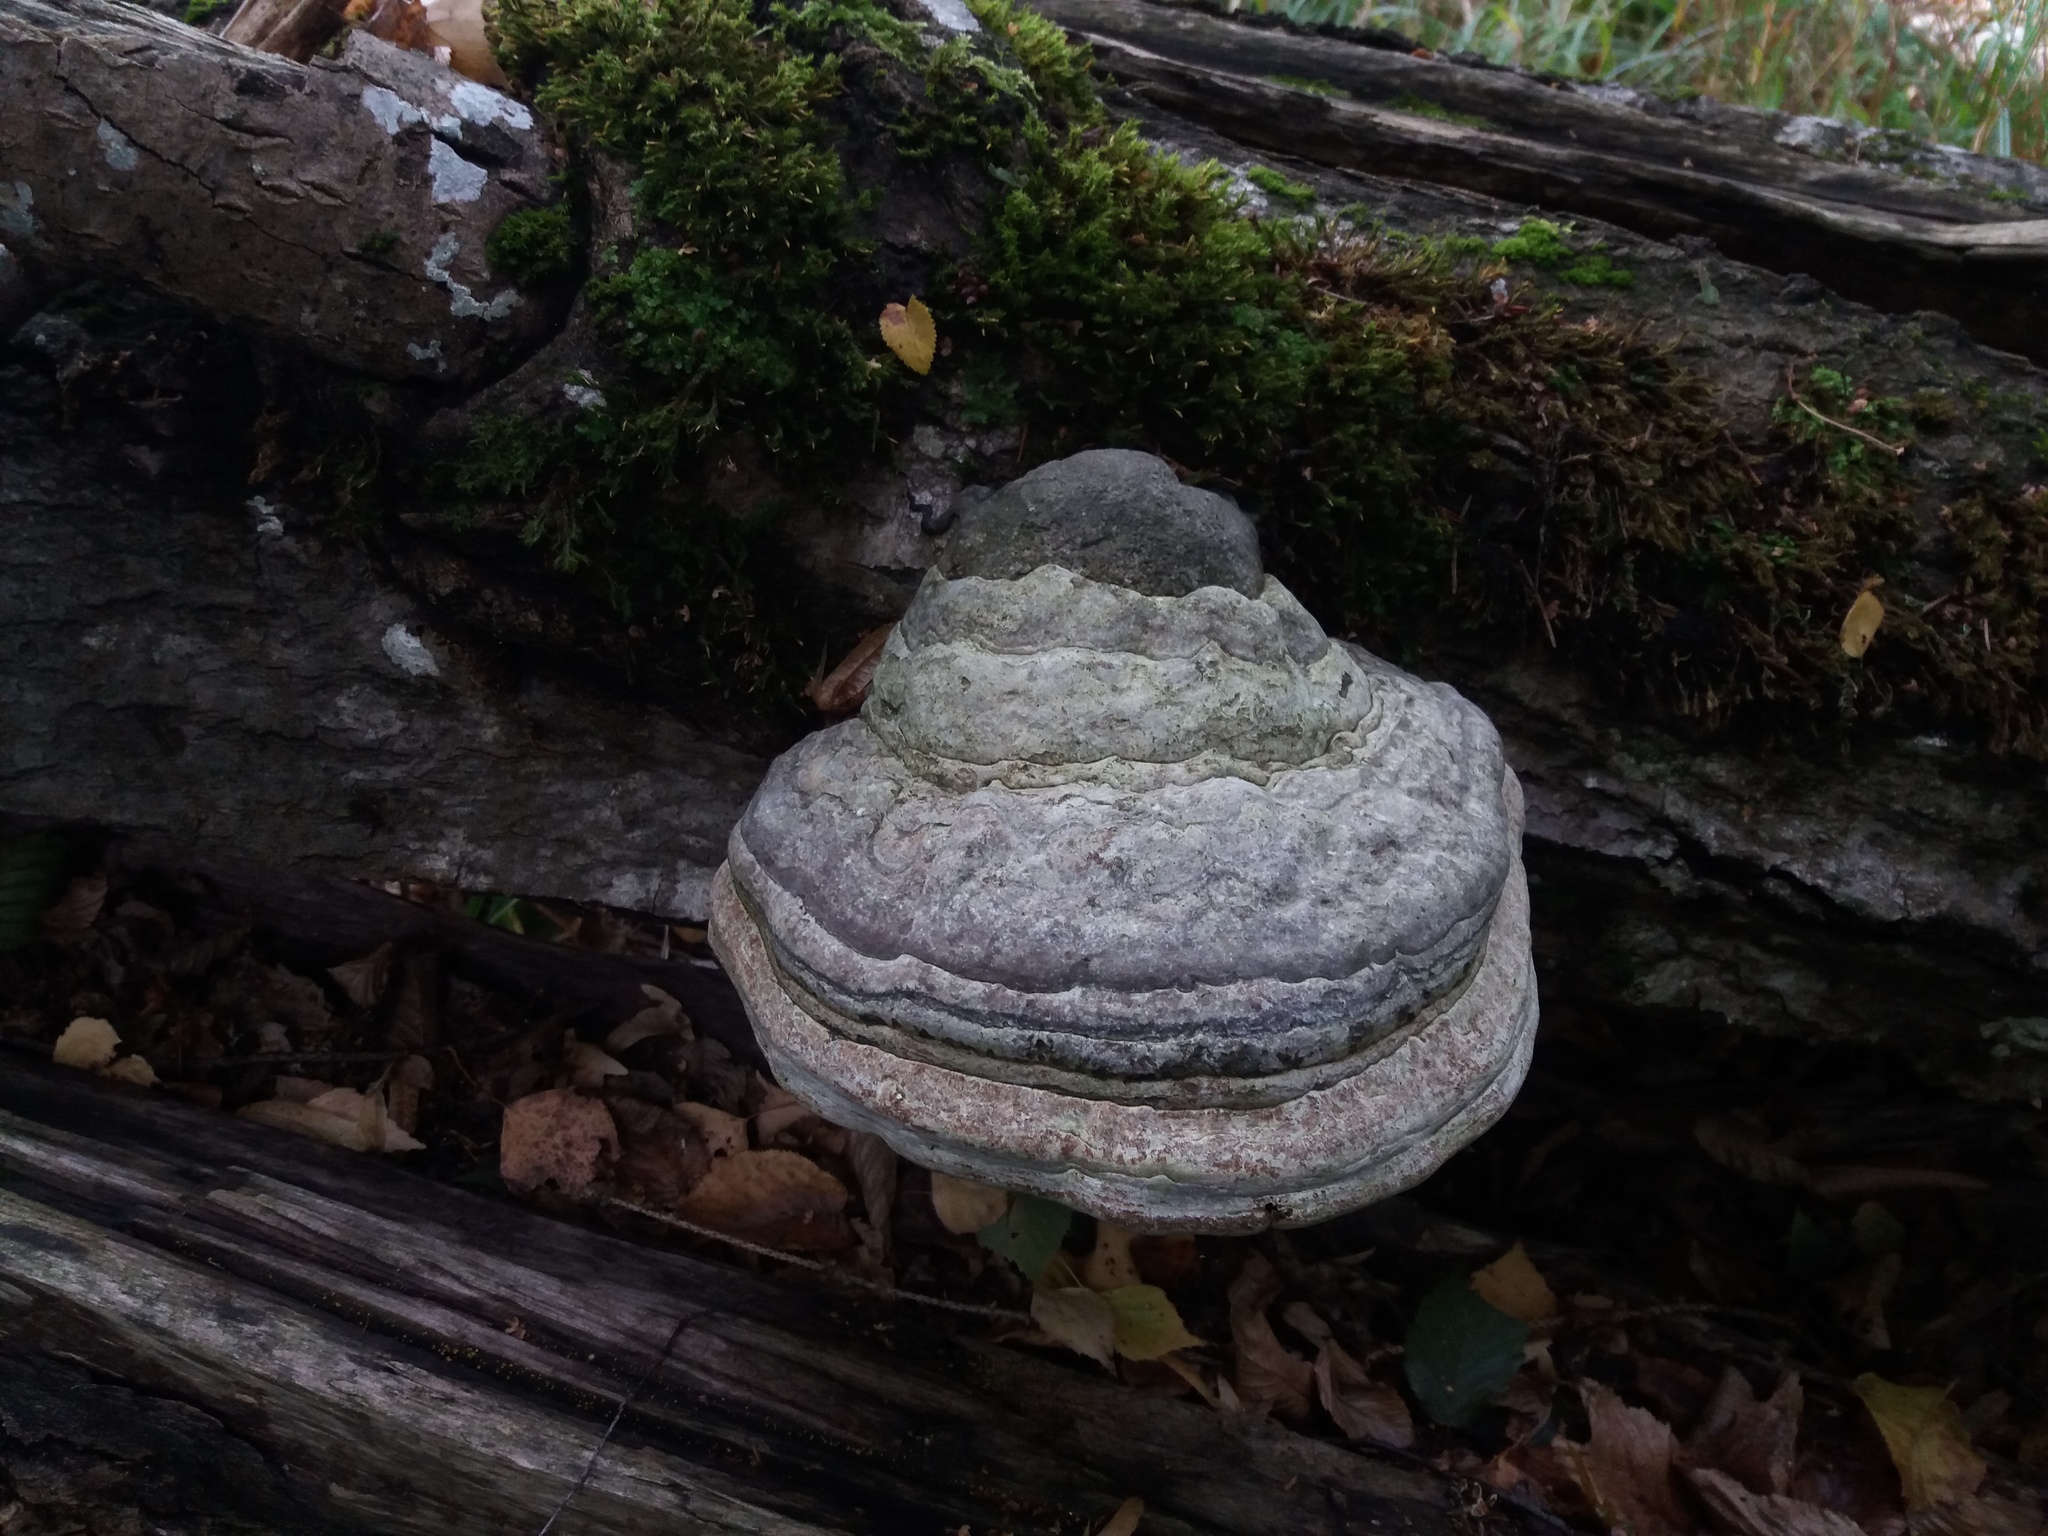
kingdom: Fungi
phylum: Basidiomycota
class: Agaricomycetes
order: Polyporales
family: Polyporaceae
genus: Fomes
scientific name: Fomes fomentarius
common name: Hoof fungus
